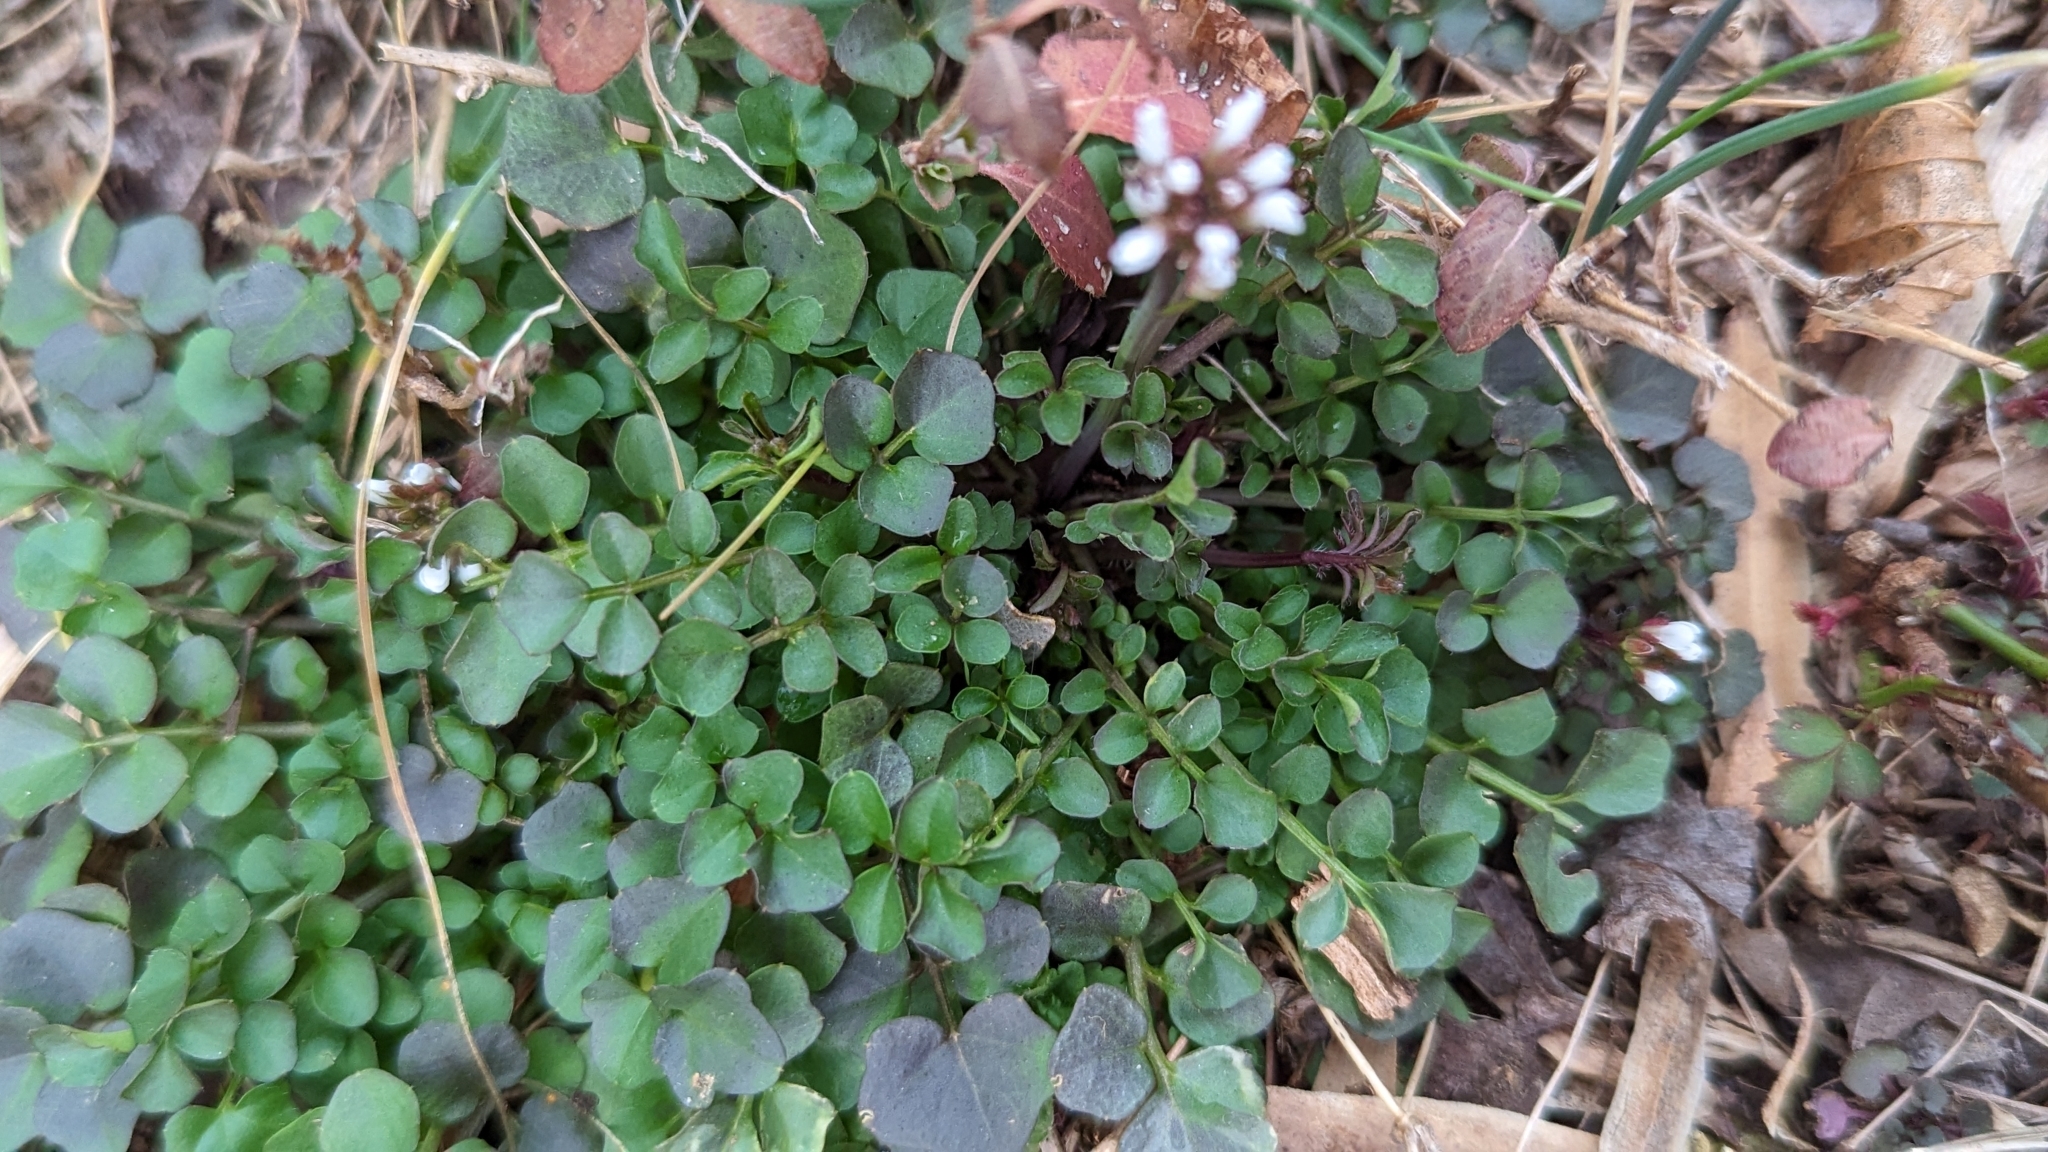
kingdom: Plantae
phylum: Tracheophyta
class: Magnoliopsida
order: Brassicales
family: Brassicaceae
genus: Cardamine
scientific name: Cardamine hirsuta
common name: Hairy bittercress
